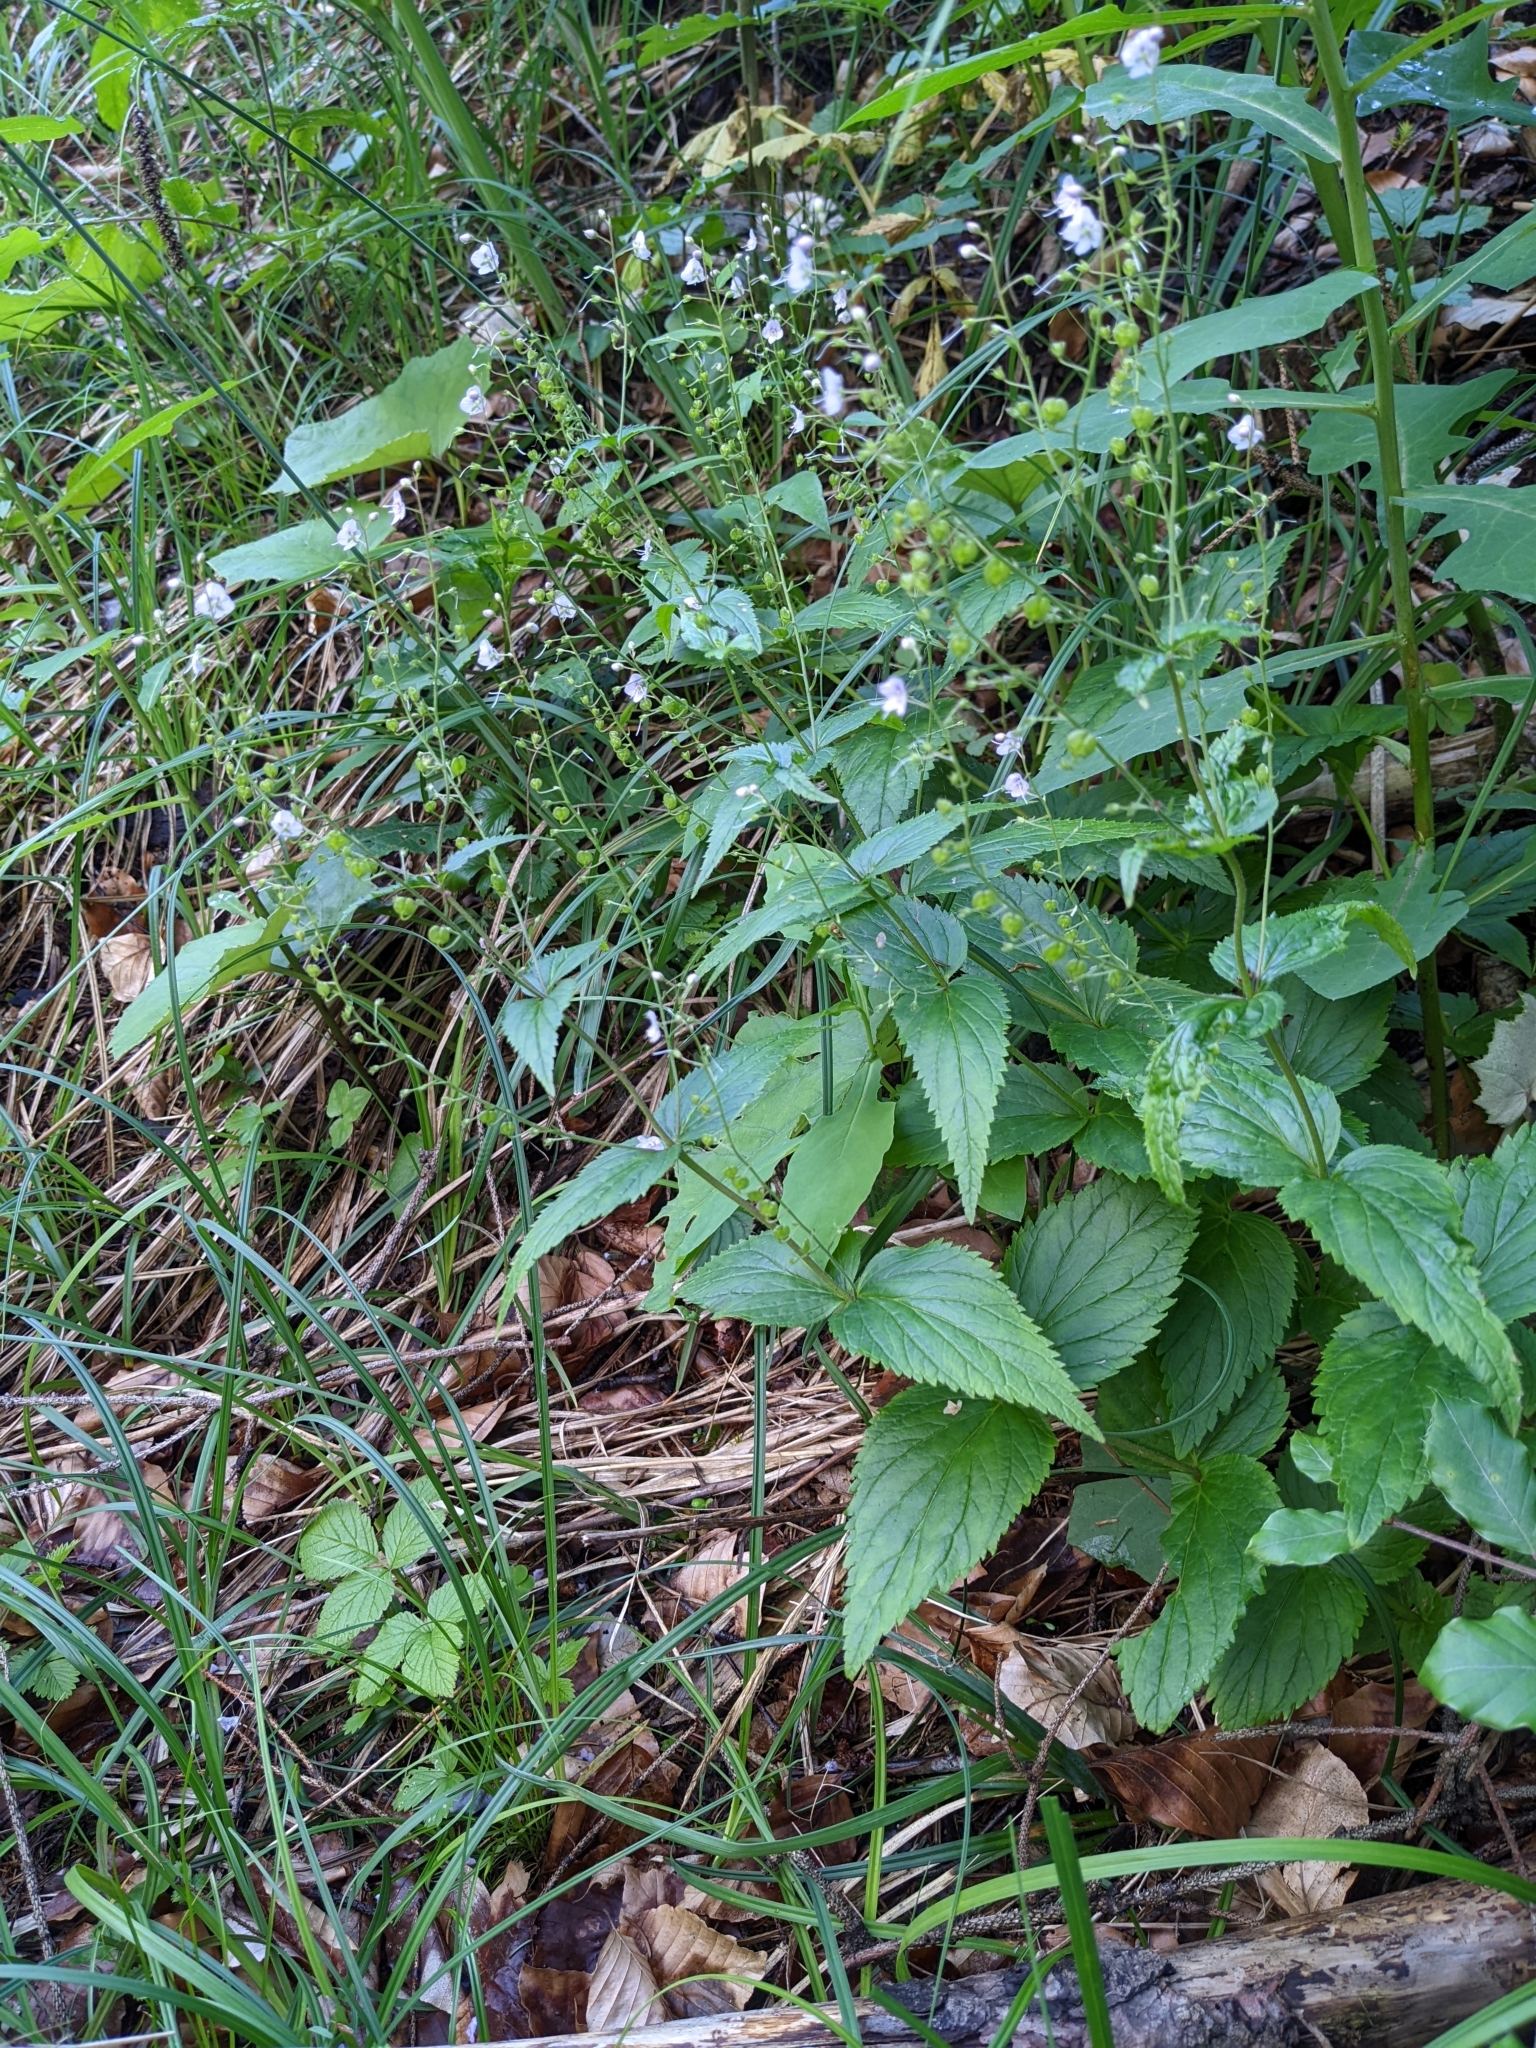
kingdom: Plantae
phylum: Tracheophyta
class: Magnoliopsida
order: Lamiales
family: Plantaginaceae
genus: Veronica
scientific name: Veronica urticifolia
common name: Nettle-leaf speedwell
